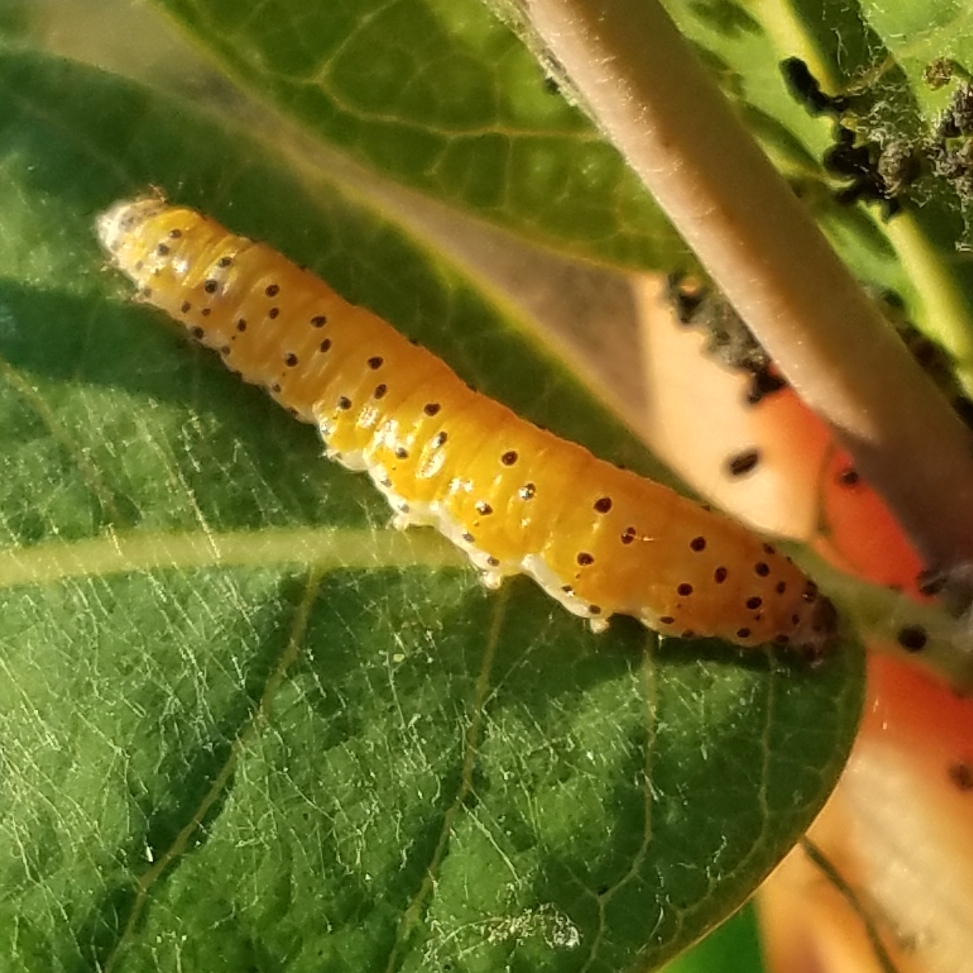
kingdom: Animalia
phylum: Arthropoda
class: Insecta
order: Lepidoptera
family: Crambidae
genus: Saucrobotys
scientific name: Saucrobotys futilalis
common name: Dogbane saucrobotys moth
